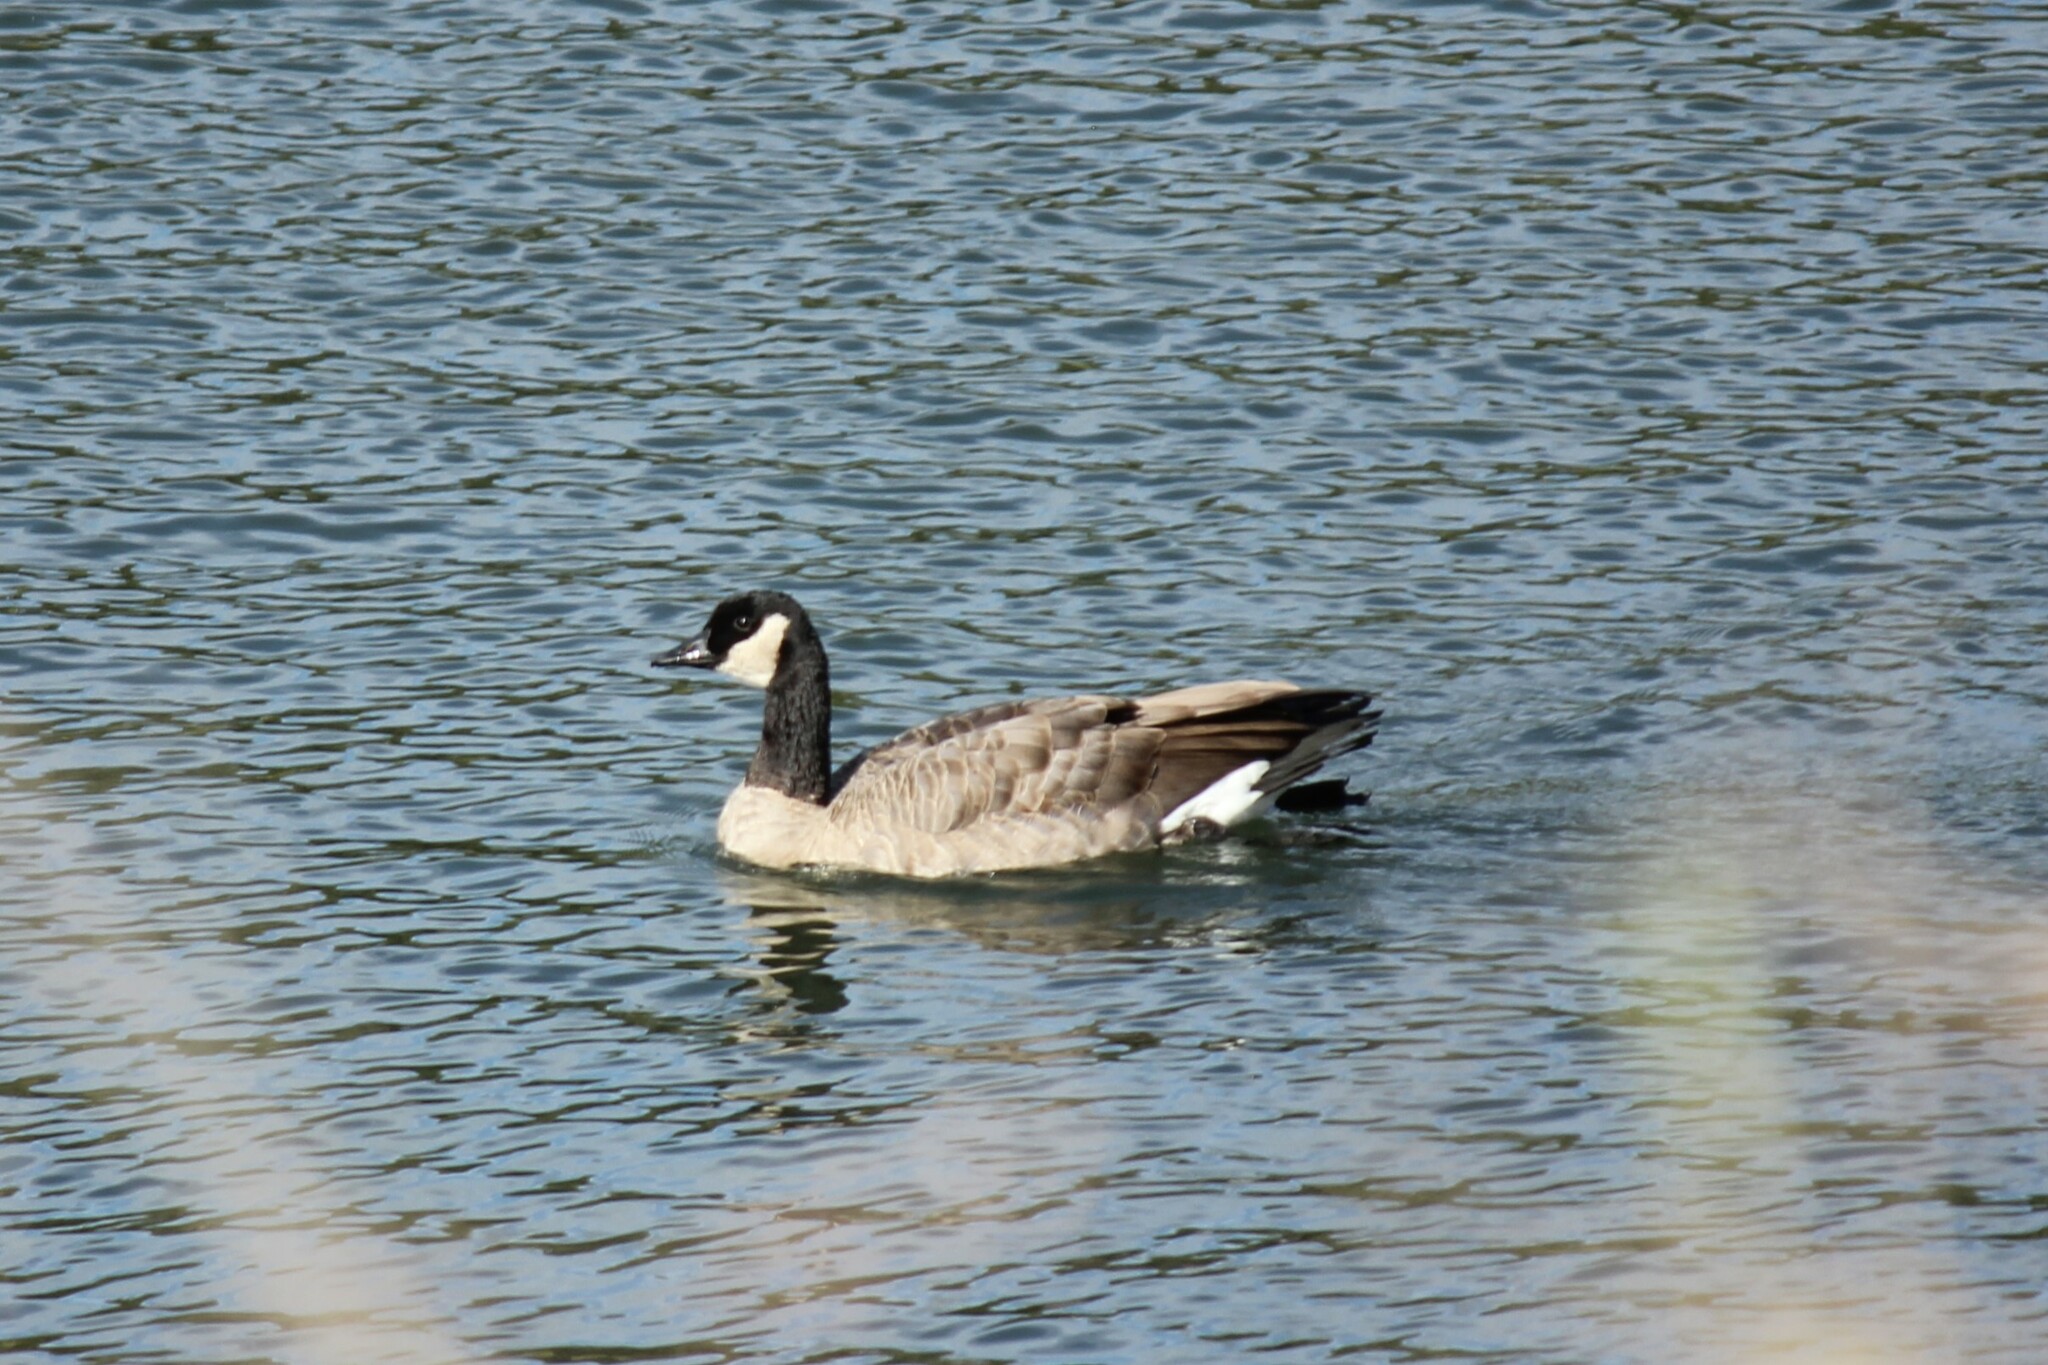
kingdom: Animalia
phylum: Chordata
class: Aves
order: Anseriformes
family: Anatidae
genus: Branta
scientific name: Branta canadensis
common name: Canada goose
